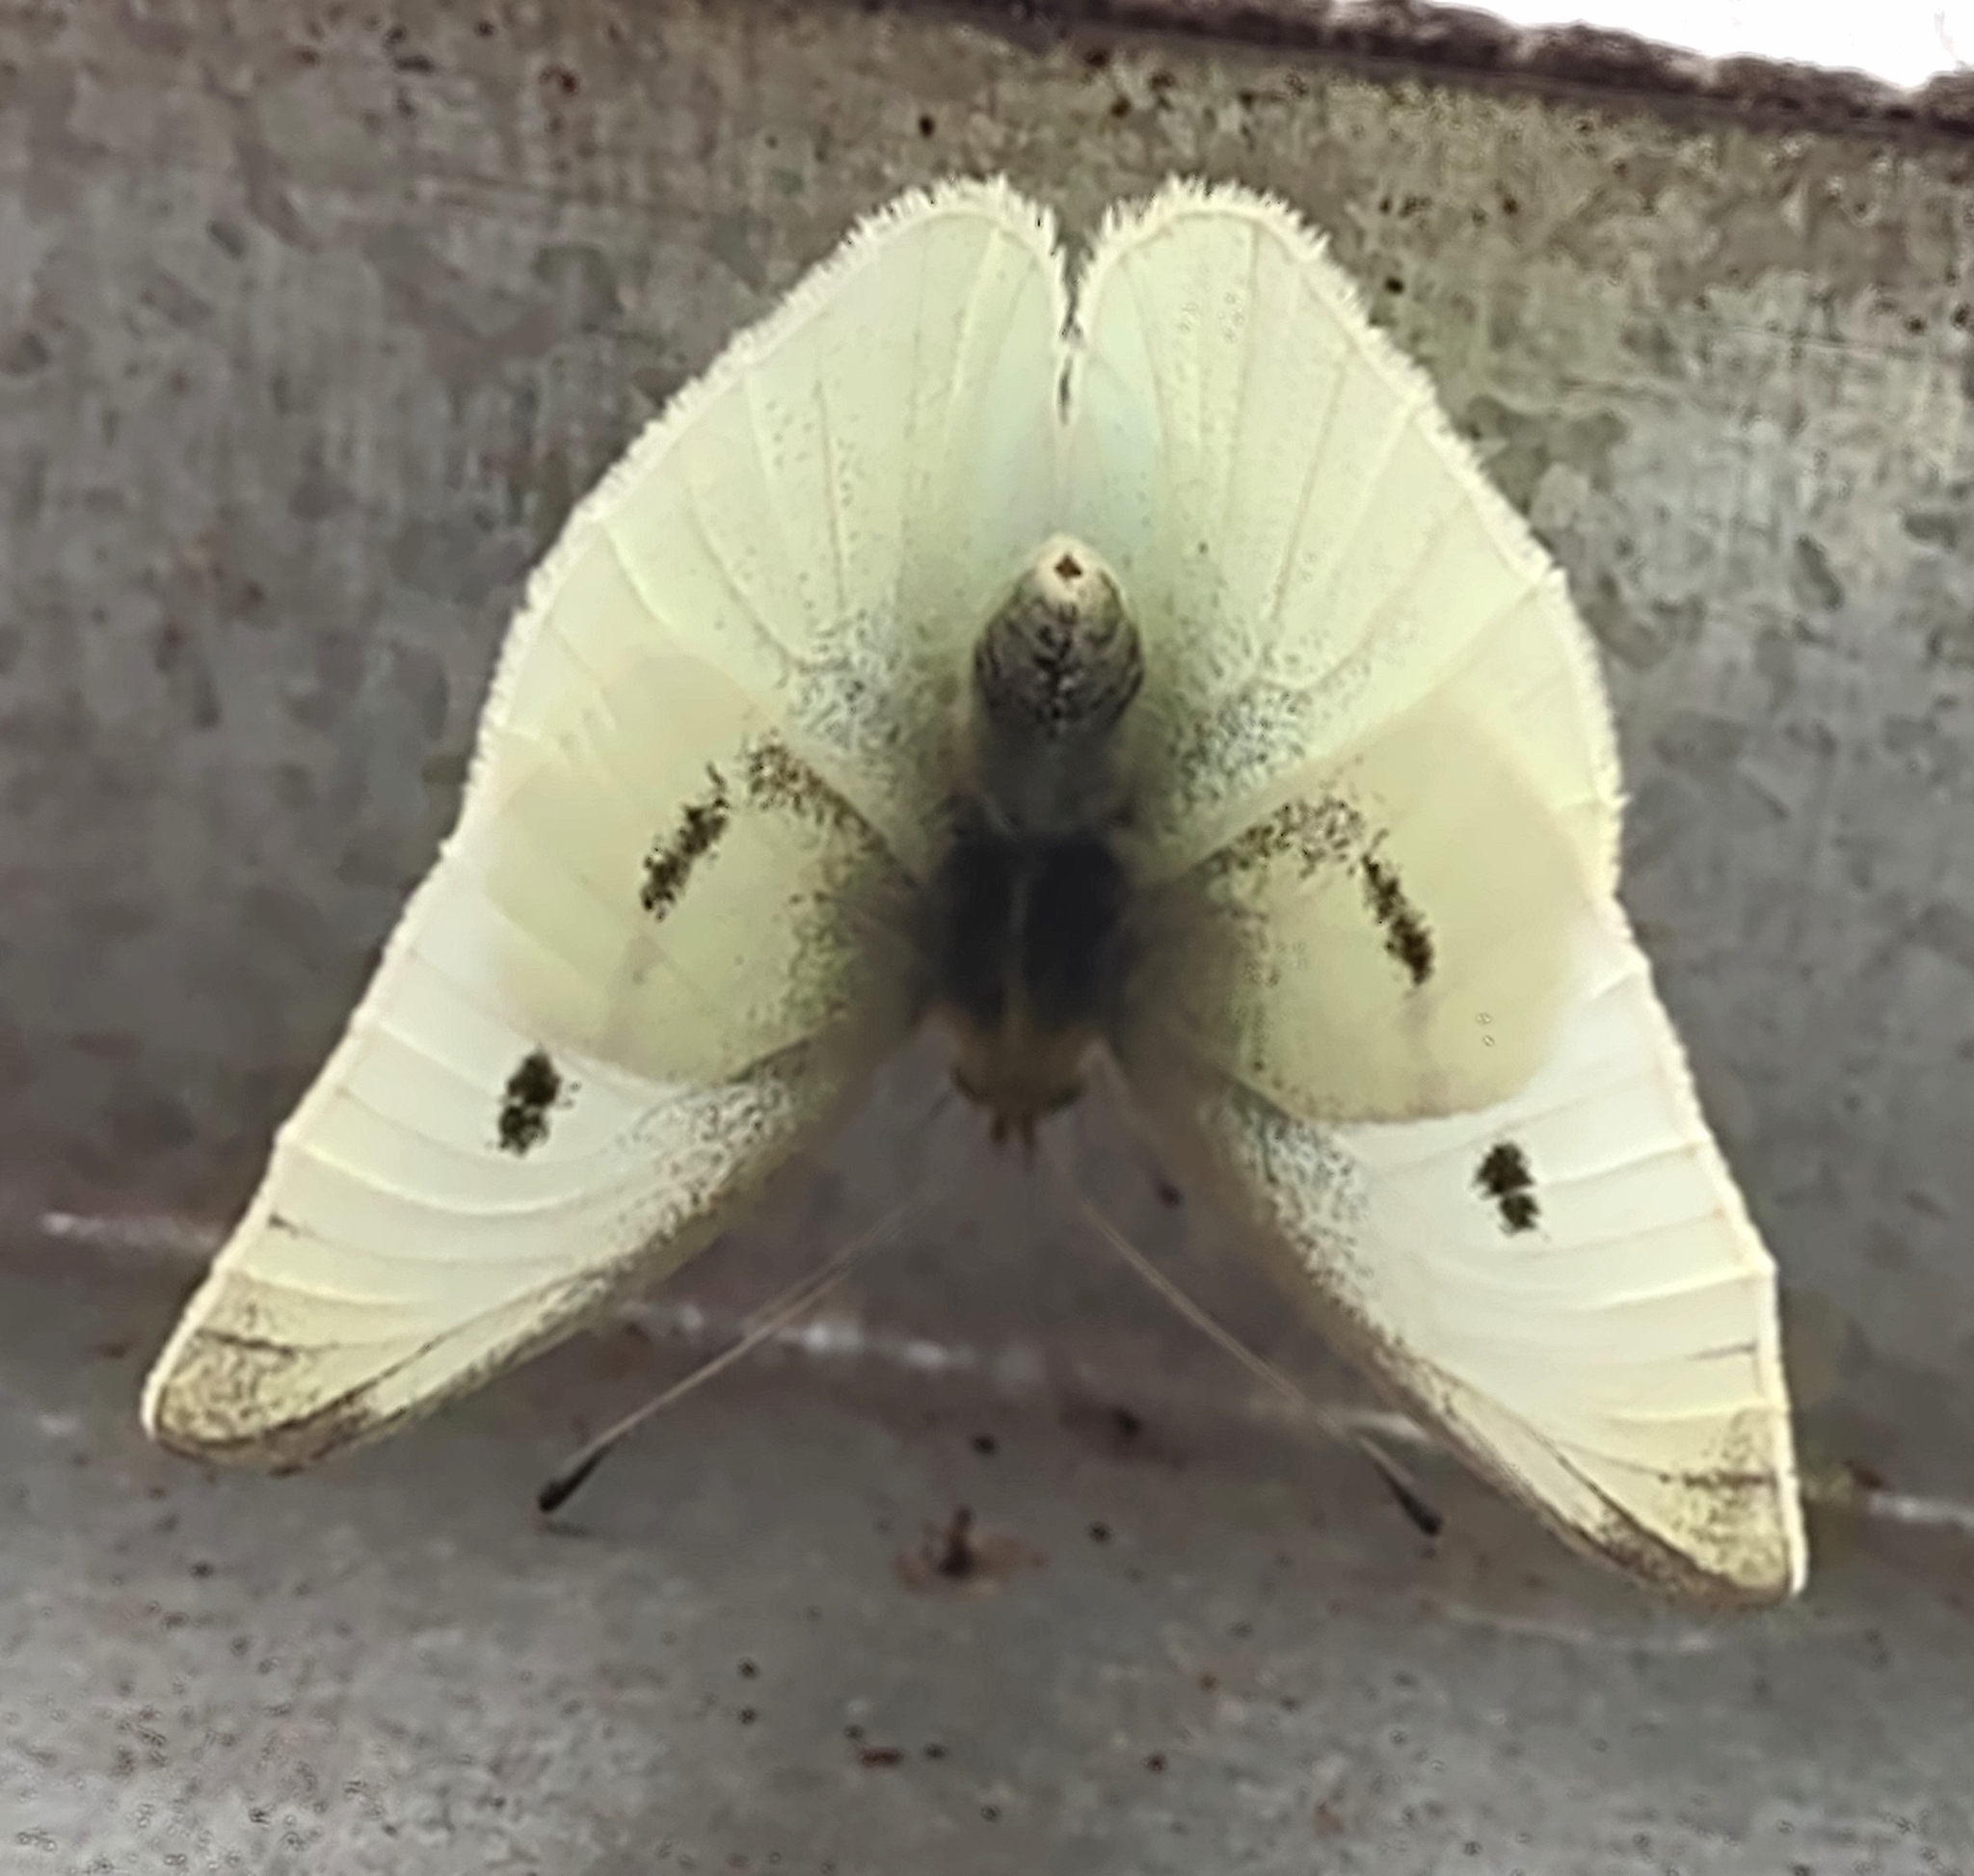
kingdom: Animalia
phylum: Arthropoda
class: Insecta
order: Lepidoptera
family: Pieridae
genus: Pieris
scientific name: Pieris rapae
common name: Small white
